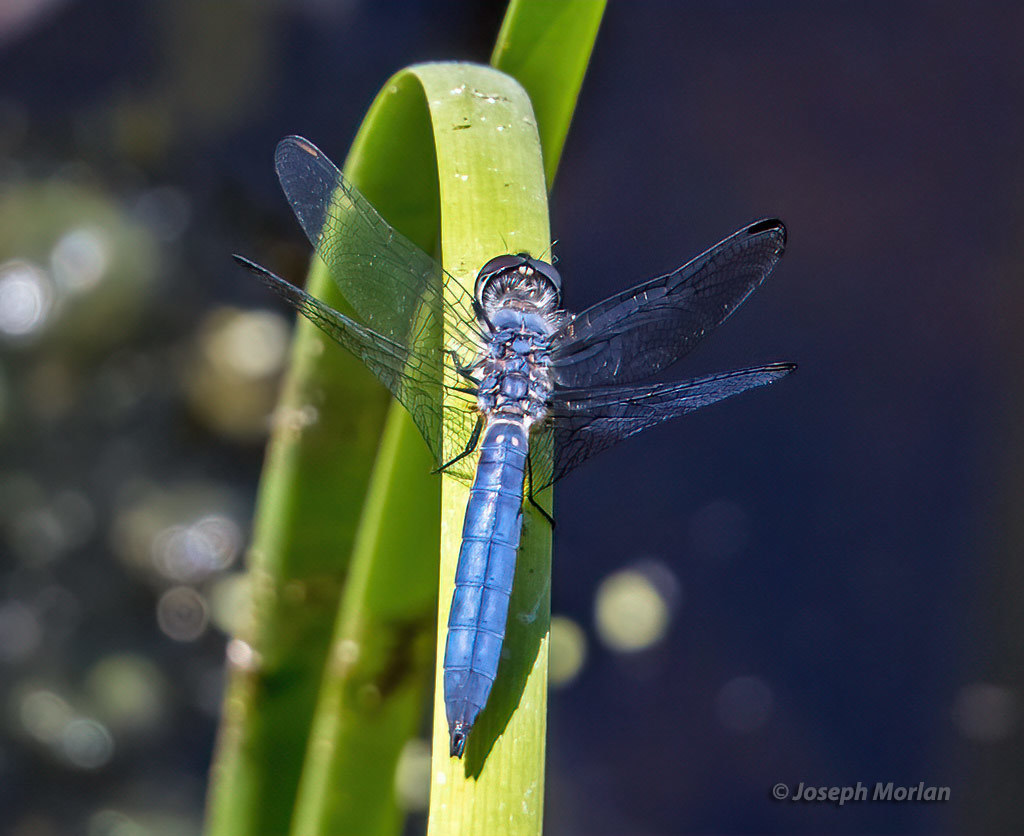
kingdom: Animalia
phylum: Arthropoda
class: Insecta
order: Odonata
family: Libellulidae
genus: Pachydiplax
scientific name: Pachydiplax longipennis
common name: Blue dasher
